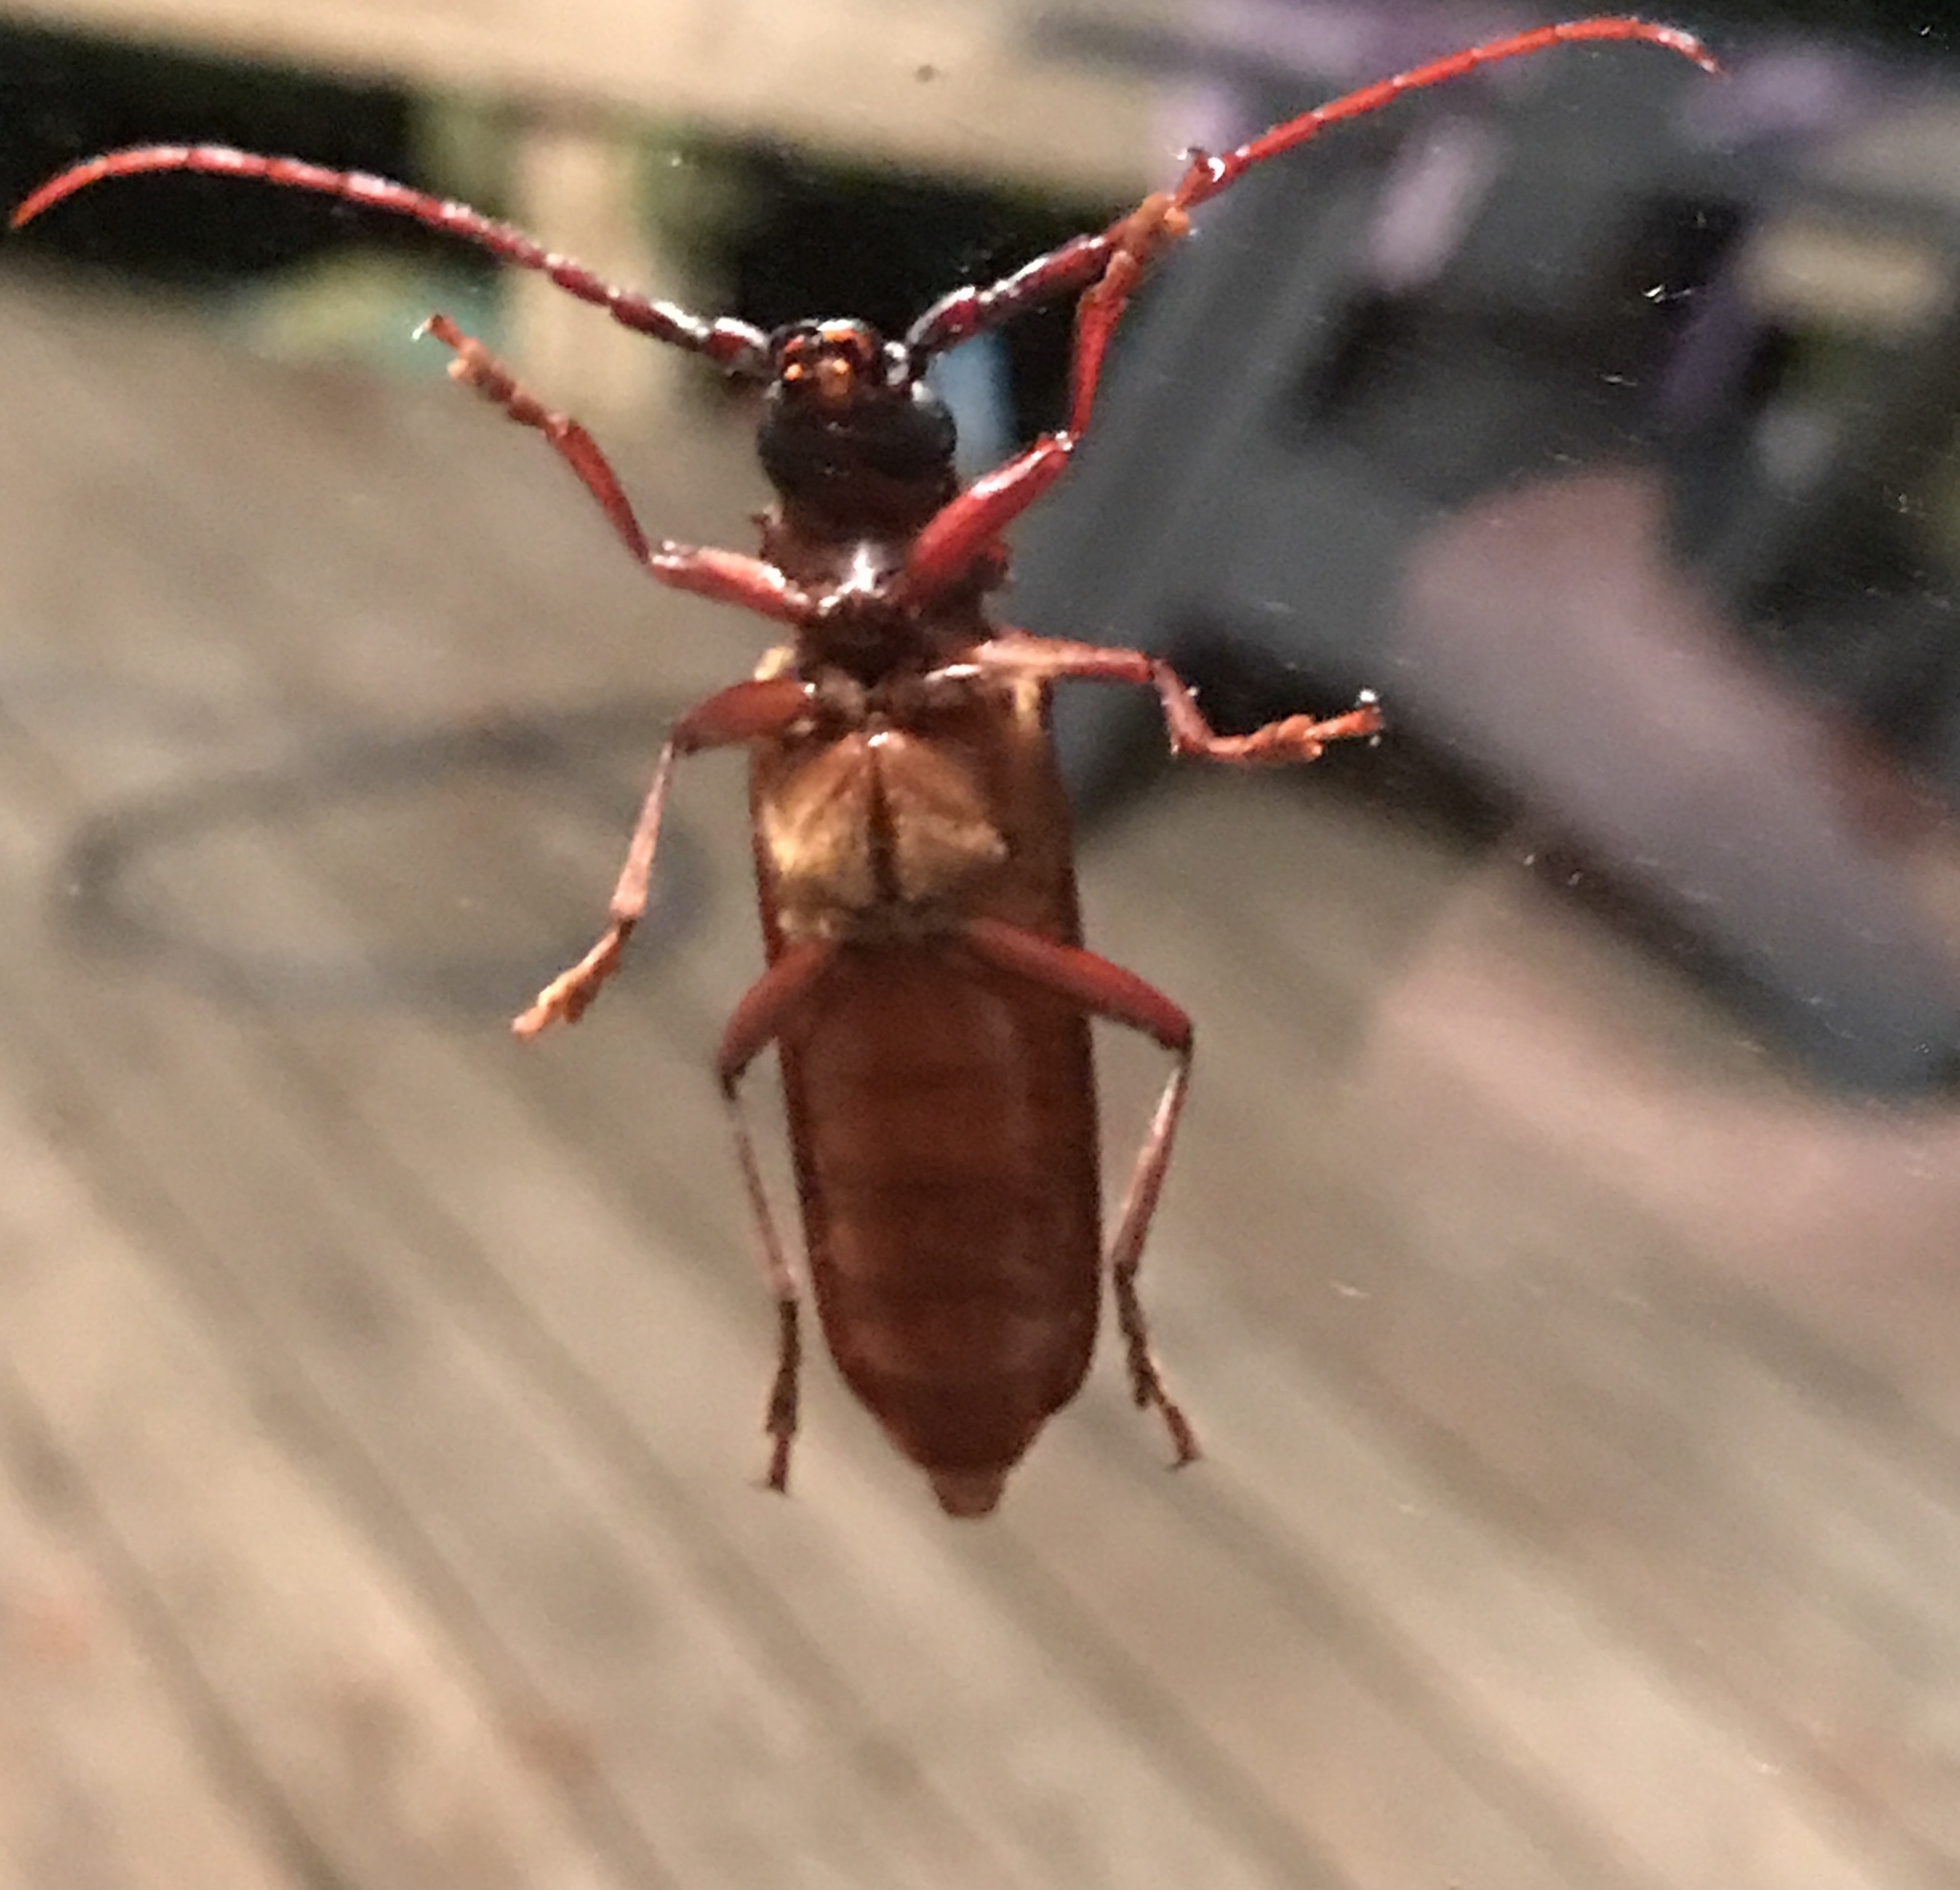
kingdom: Animalia
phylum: Arthropoda
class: Insecta
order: Coleoptera
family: Cerambycidae
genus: Orthosoma
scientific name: Orthosoma brunneum
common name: Brown prionid beetle
